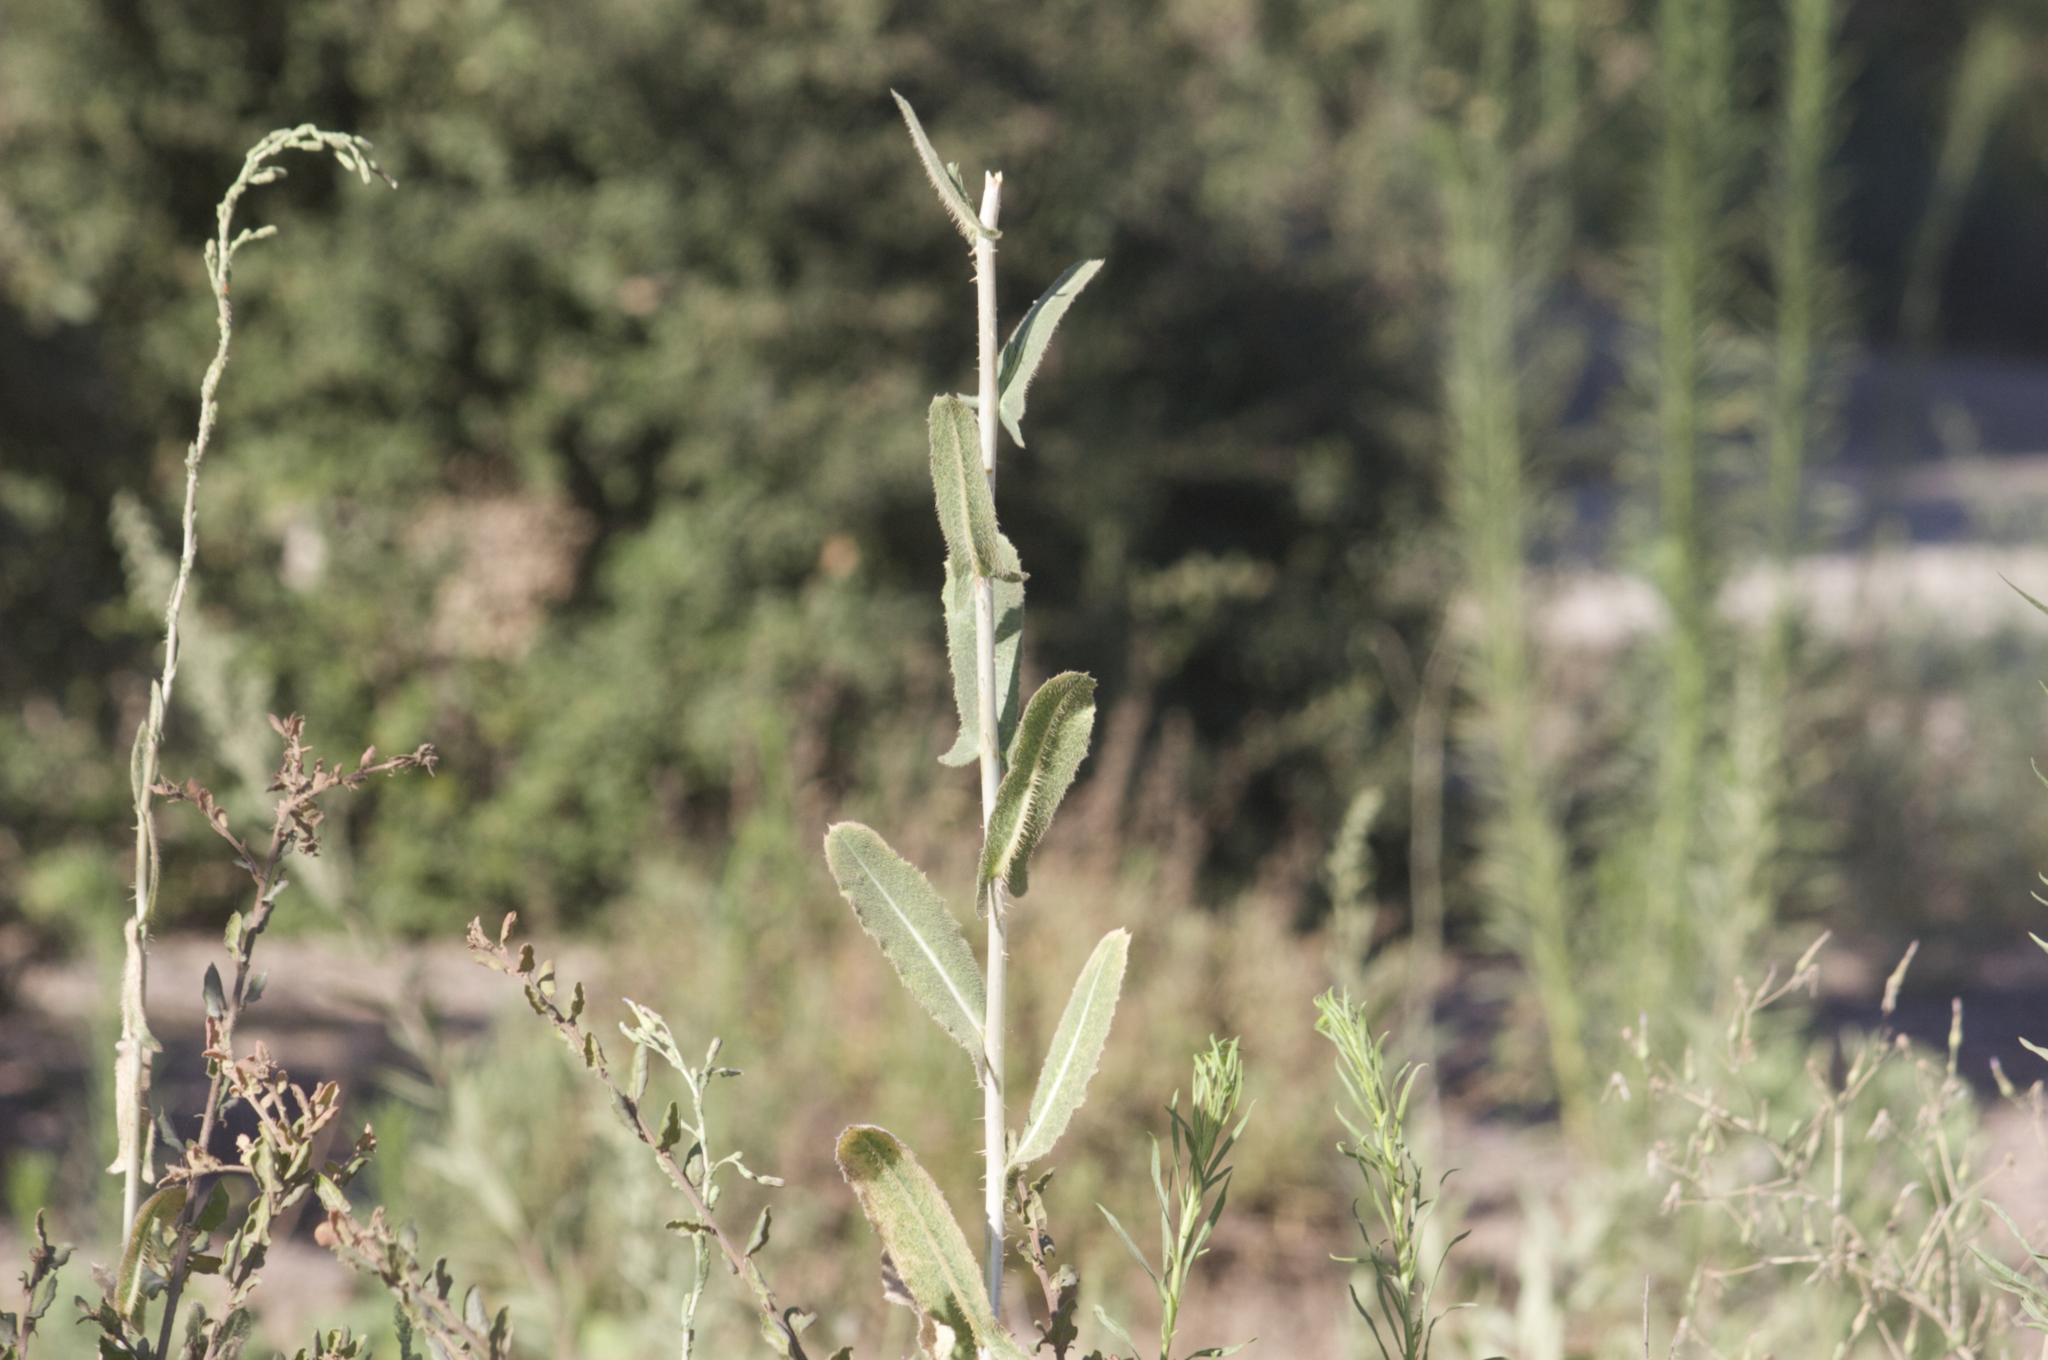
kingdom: Plantae
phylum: Tracheophyta
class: Magnoliopsida
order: Asterales
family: Asteraceae
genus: Lactuca
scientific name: Lactuca serriola
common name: Prickly lettuce
